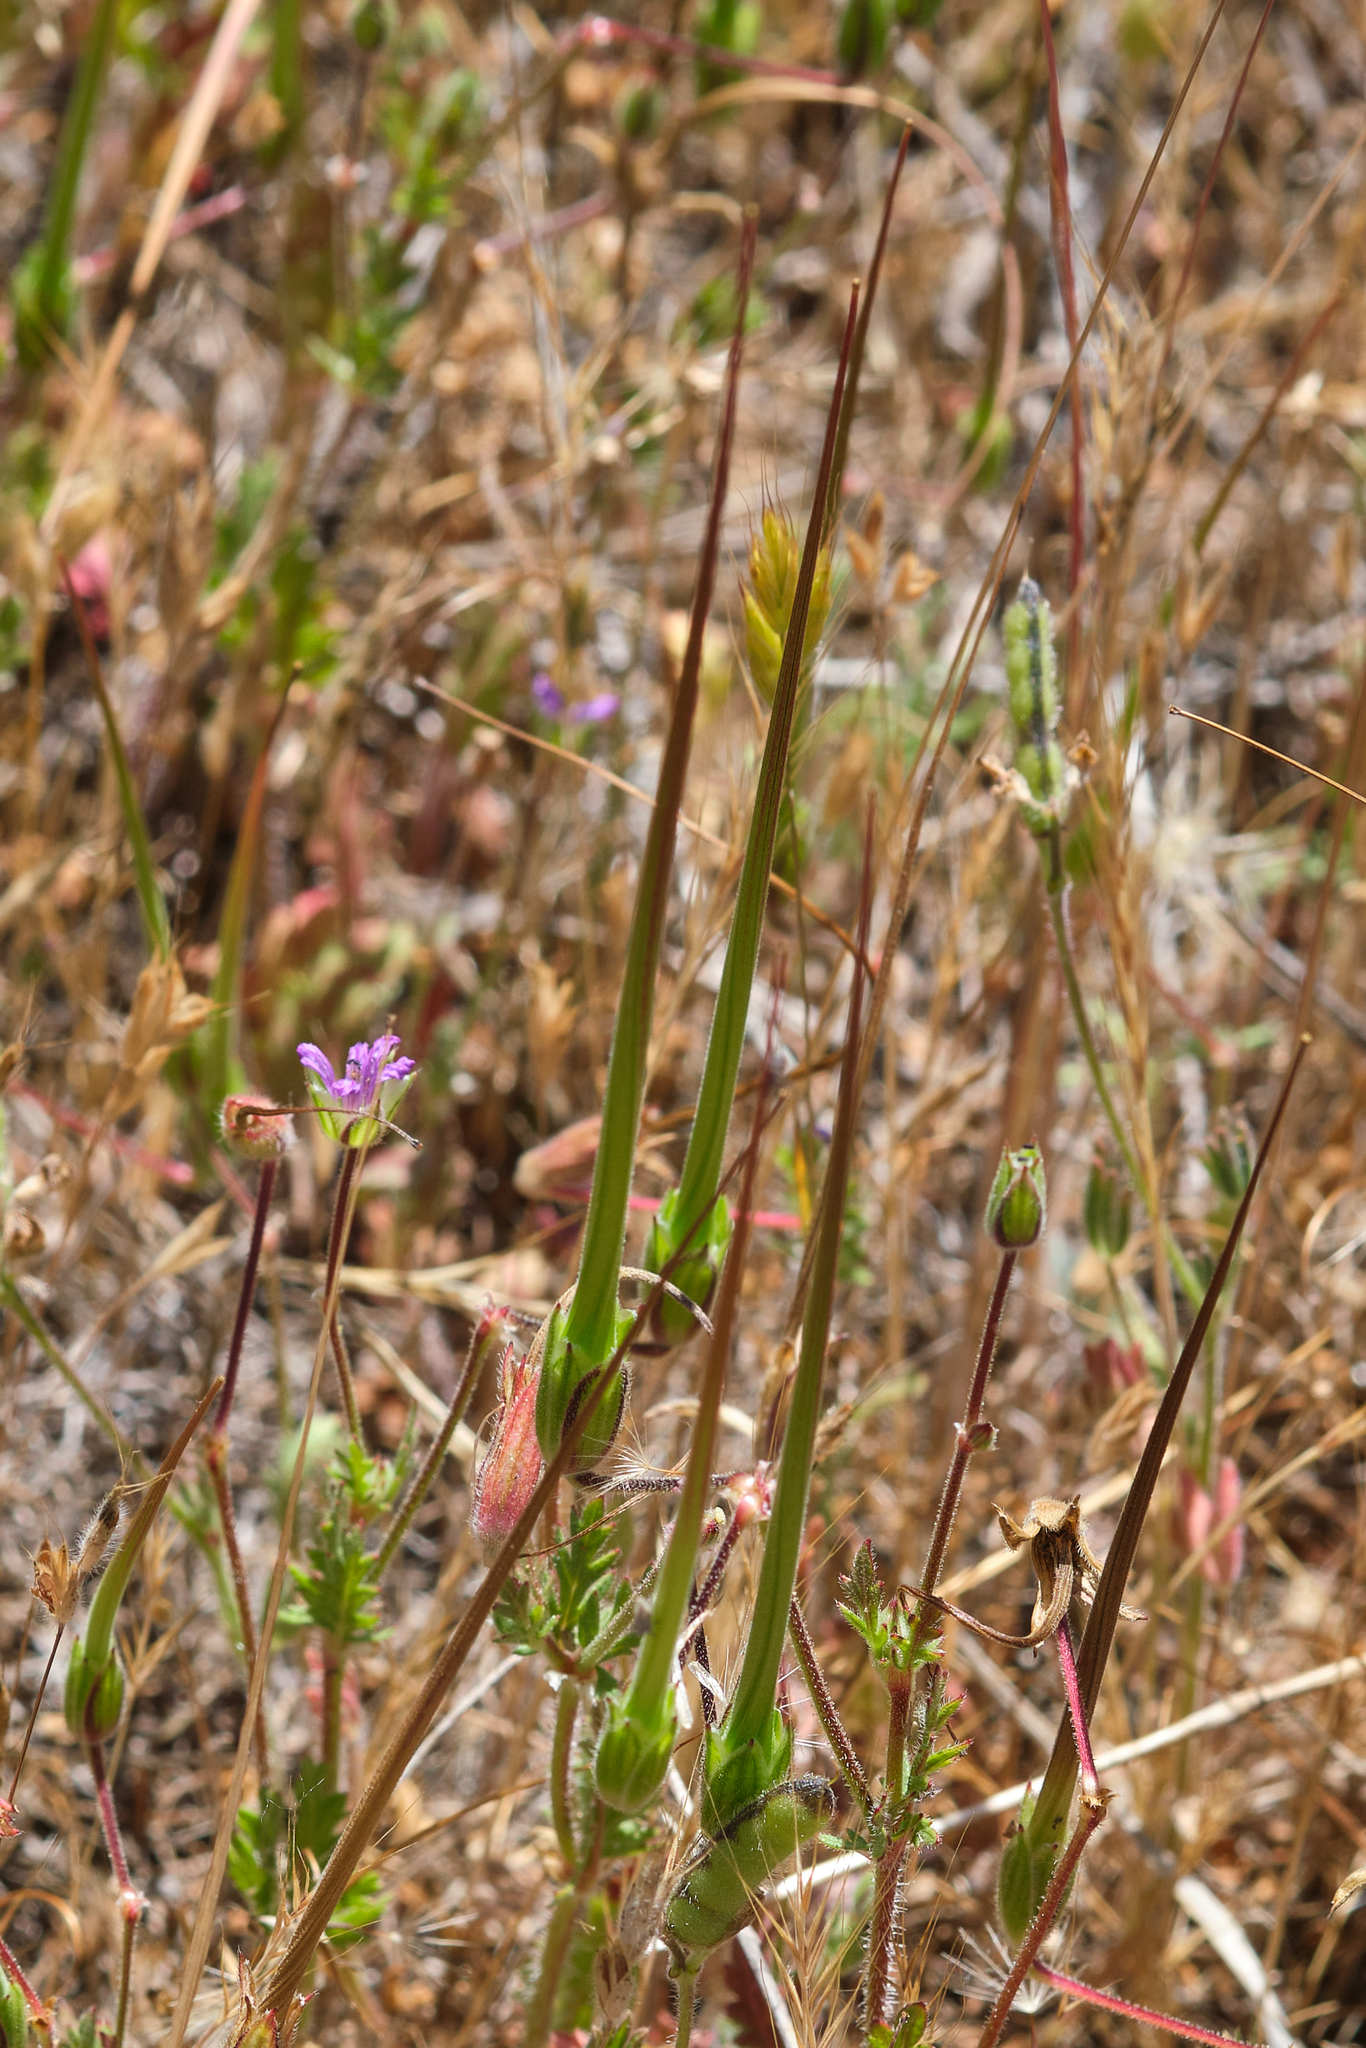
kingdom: Plantae
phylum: Tracheophyta
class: Magnoliopsida
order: Geraniales
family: Geraniaceae
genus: Erodium
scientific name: Erodium botrys
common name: Mediterranean stork's-bill
